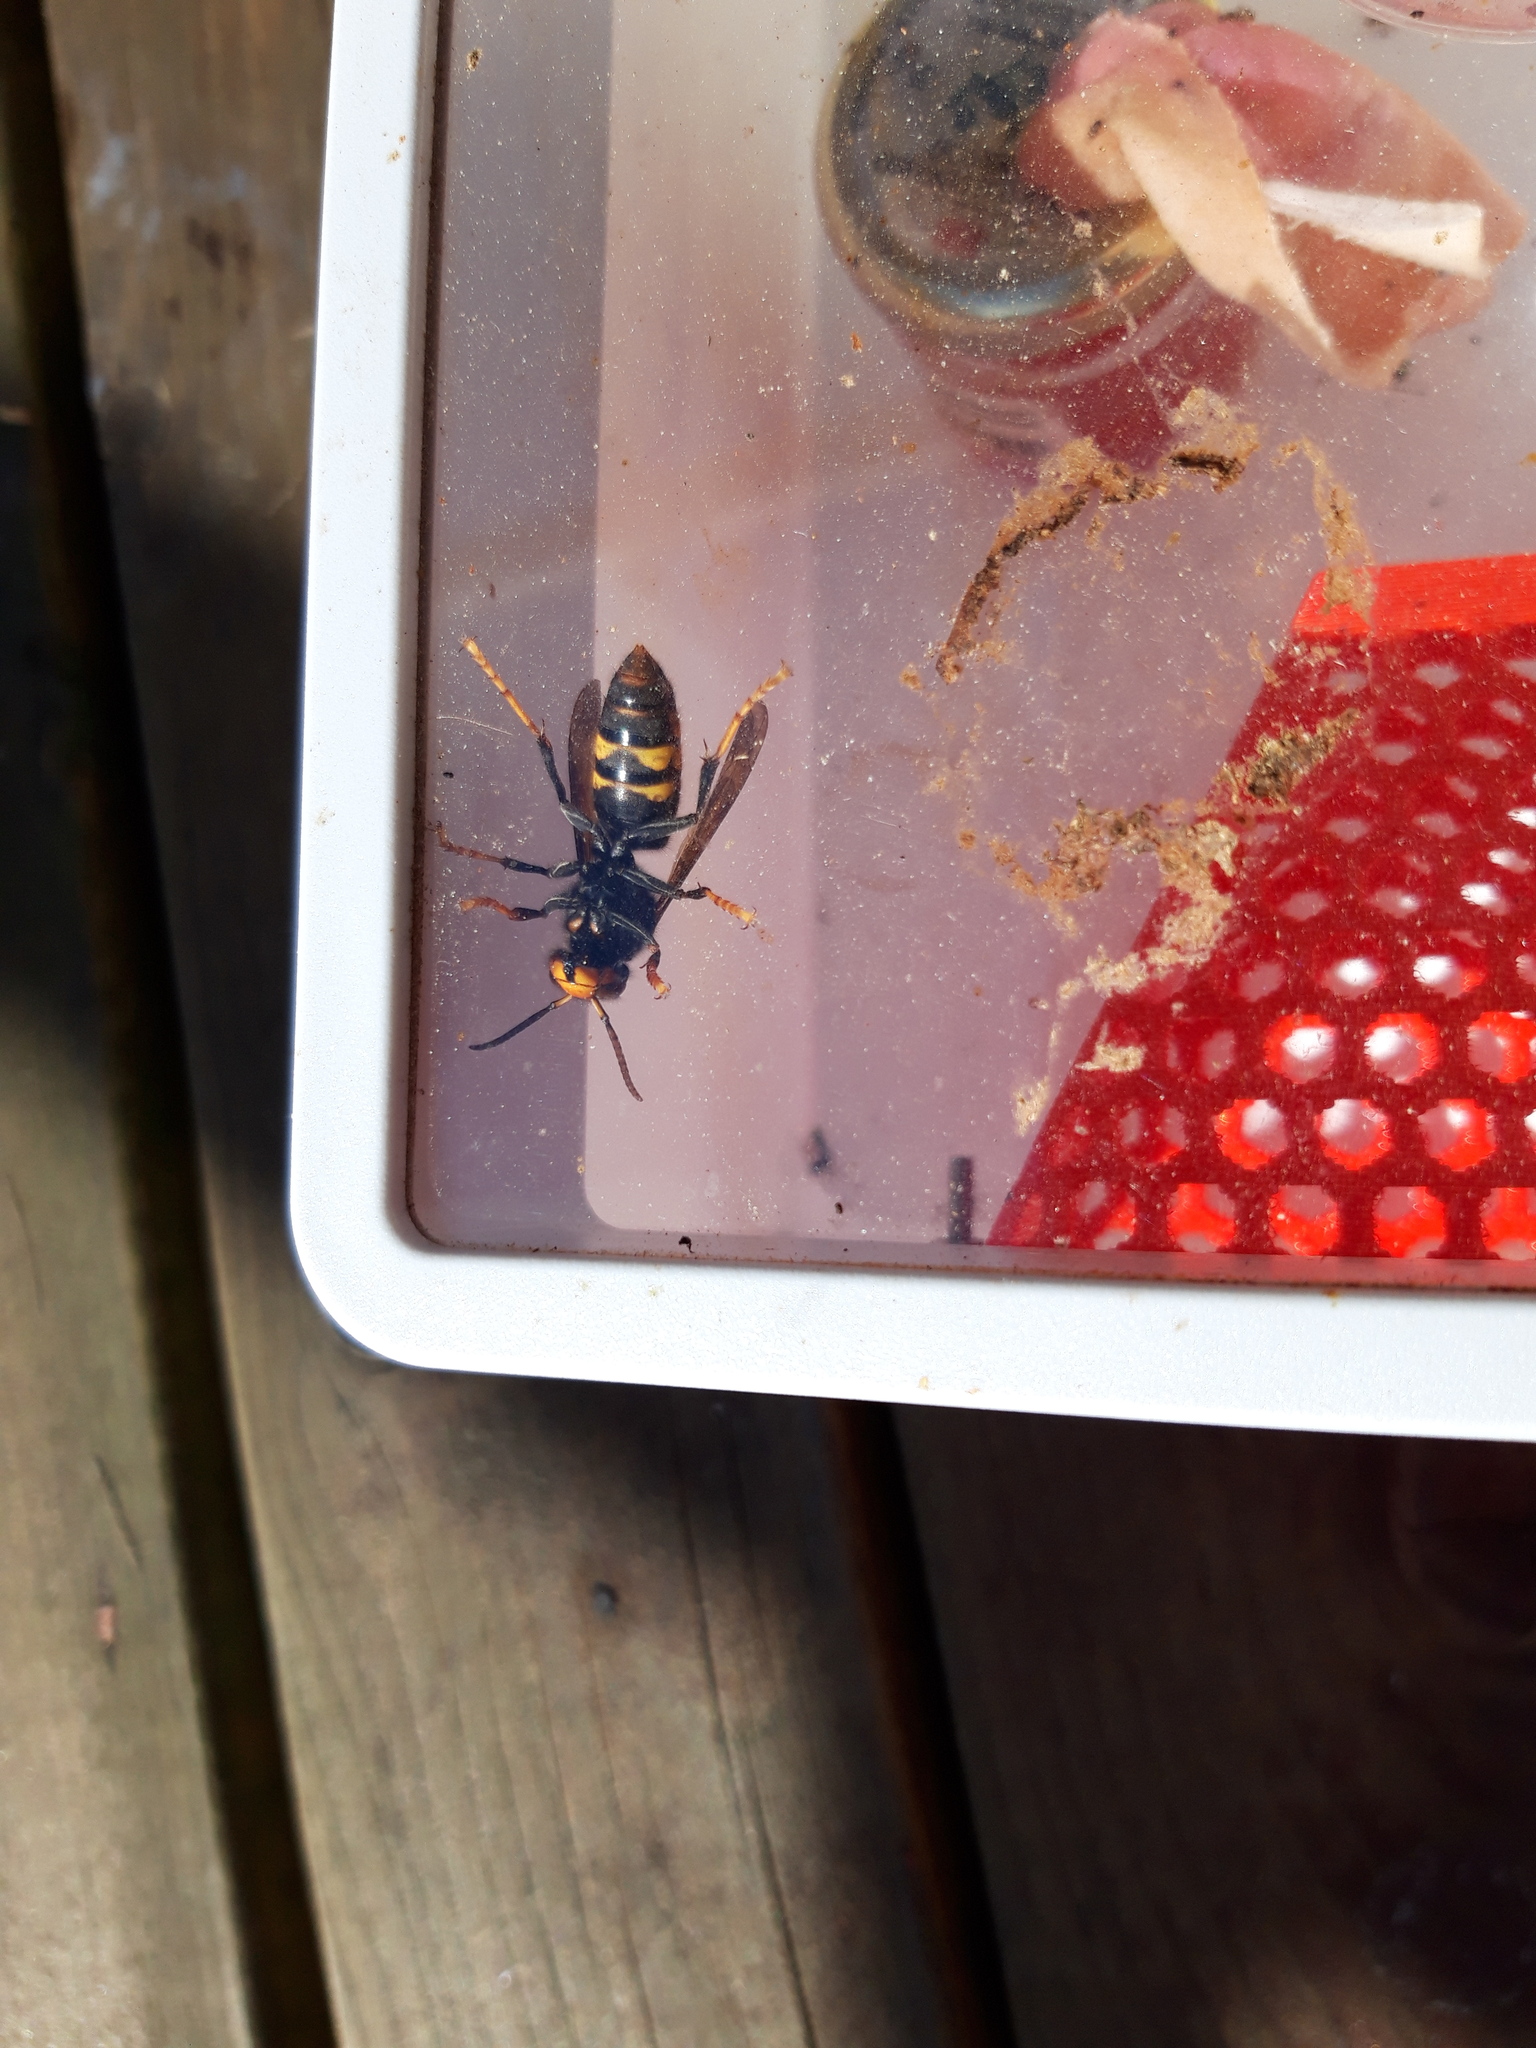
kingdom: Animalia
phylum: Arthropoda
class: Insecta
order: Hymenoptera
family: Vespidae
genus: Vespa
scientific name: Vespa velutina
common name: Asian hornet
